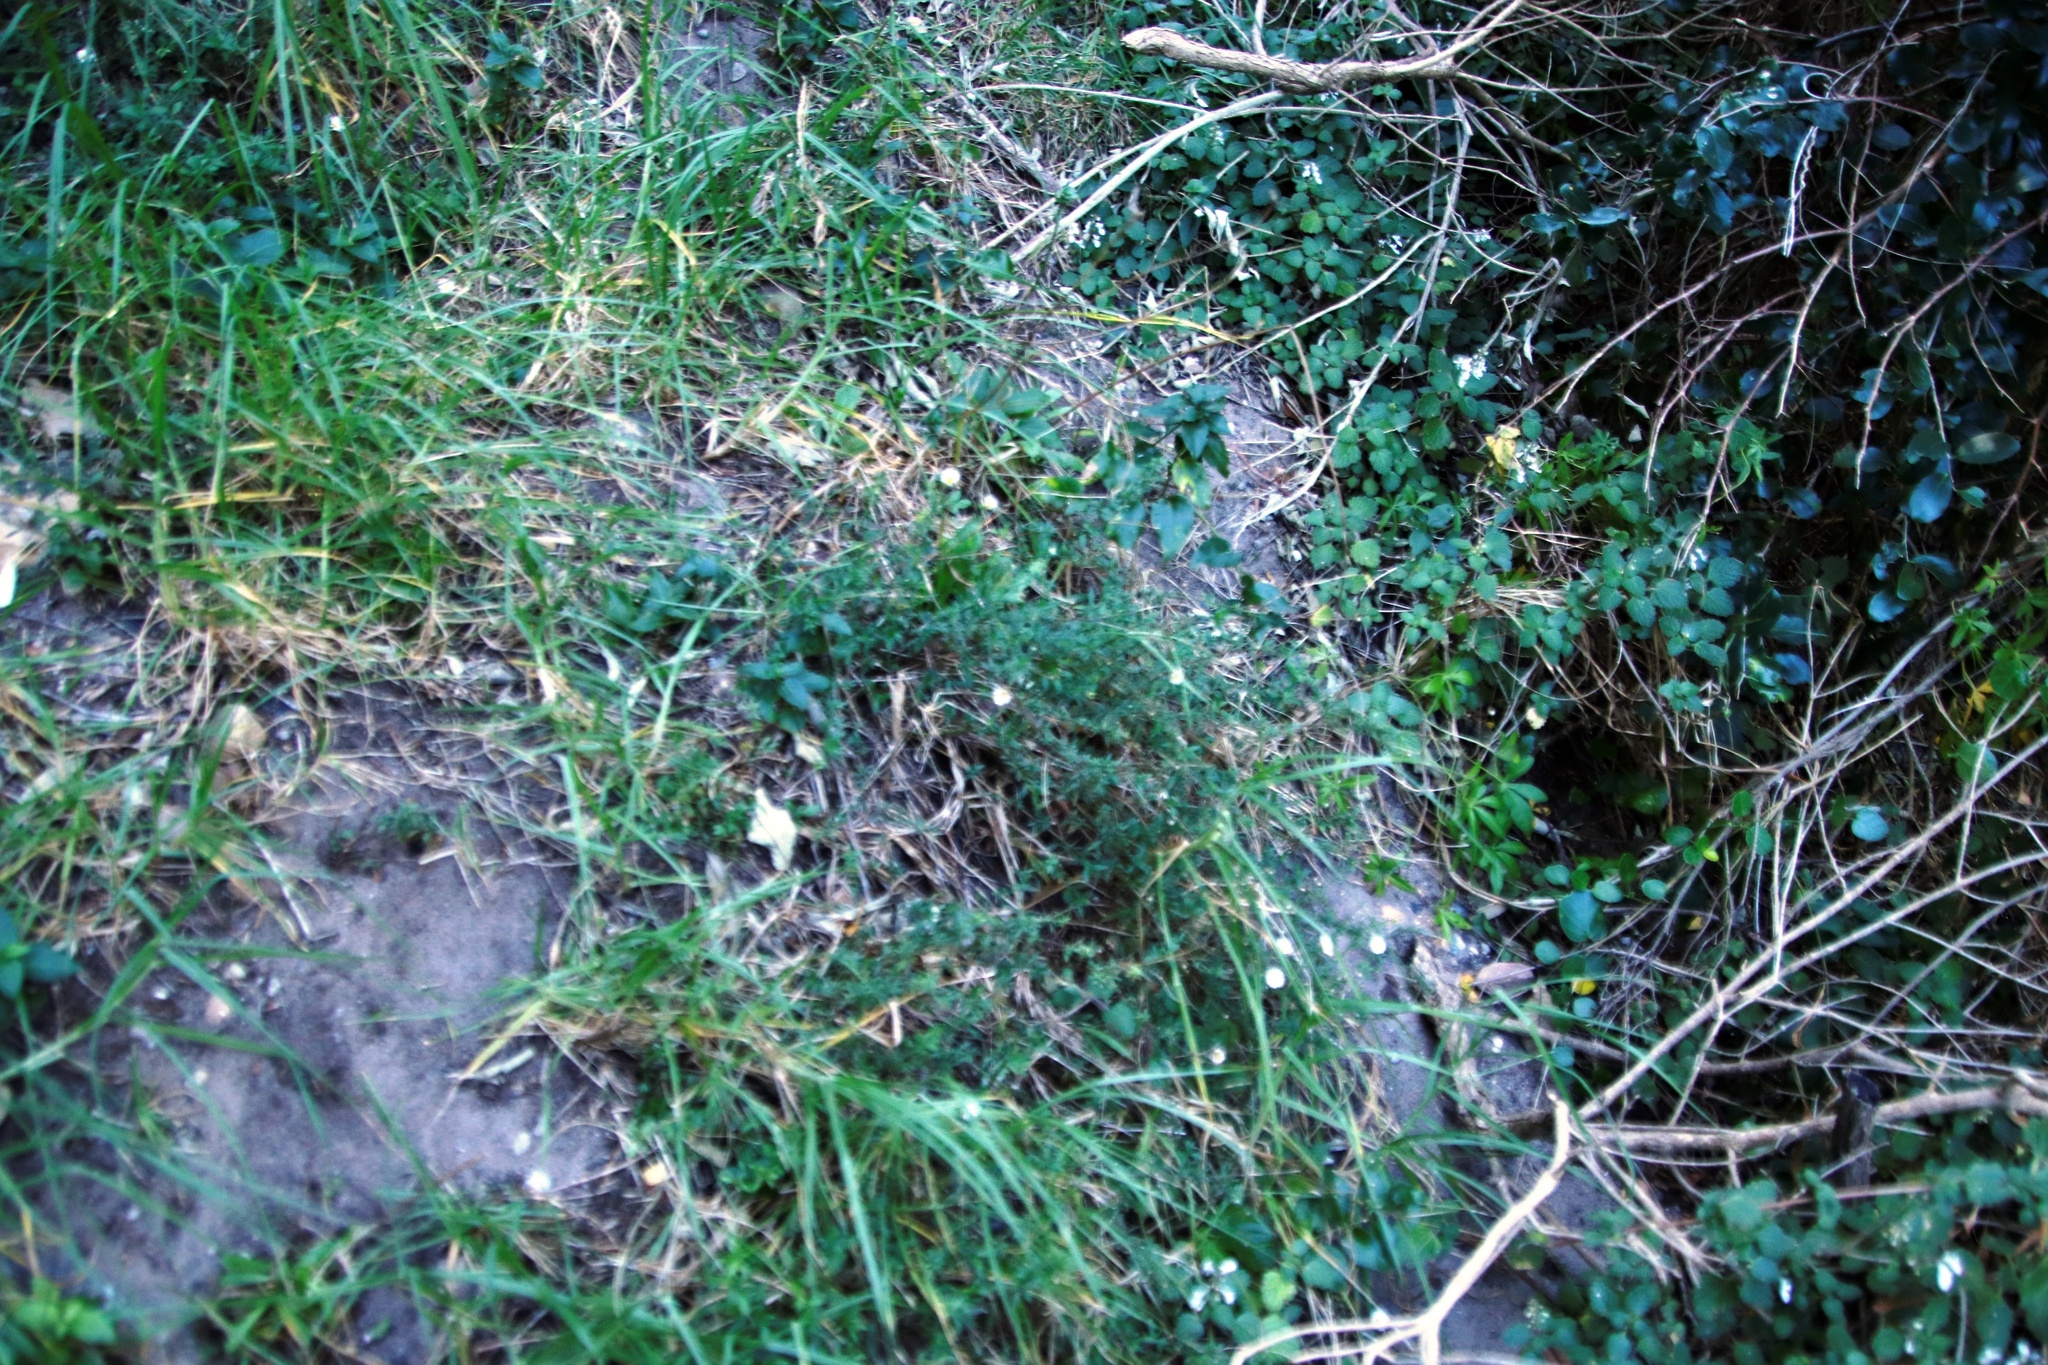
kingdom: Plantae
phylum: Tracheophyta
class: Magnoliopsida
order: Asterales
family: Asteraceae
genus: Erigeron
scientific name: Erigeron karvinskianus
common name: Mexican fleabane
